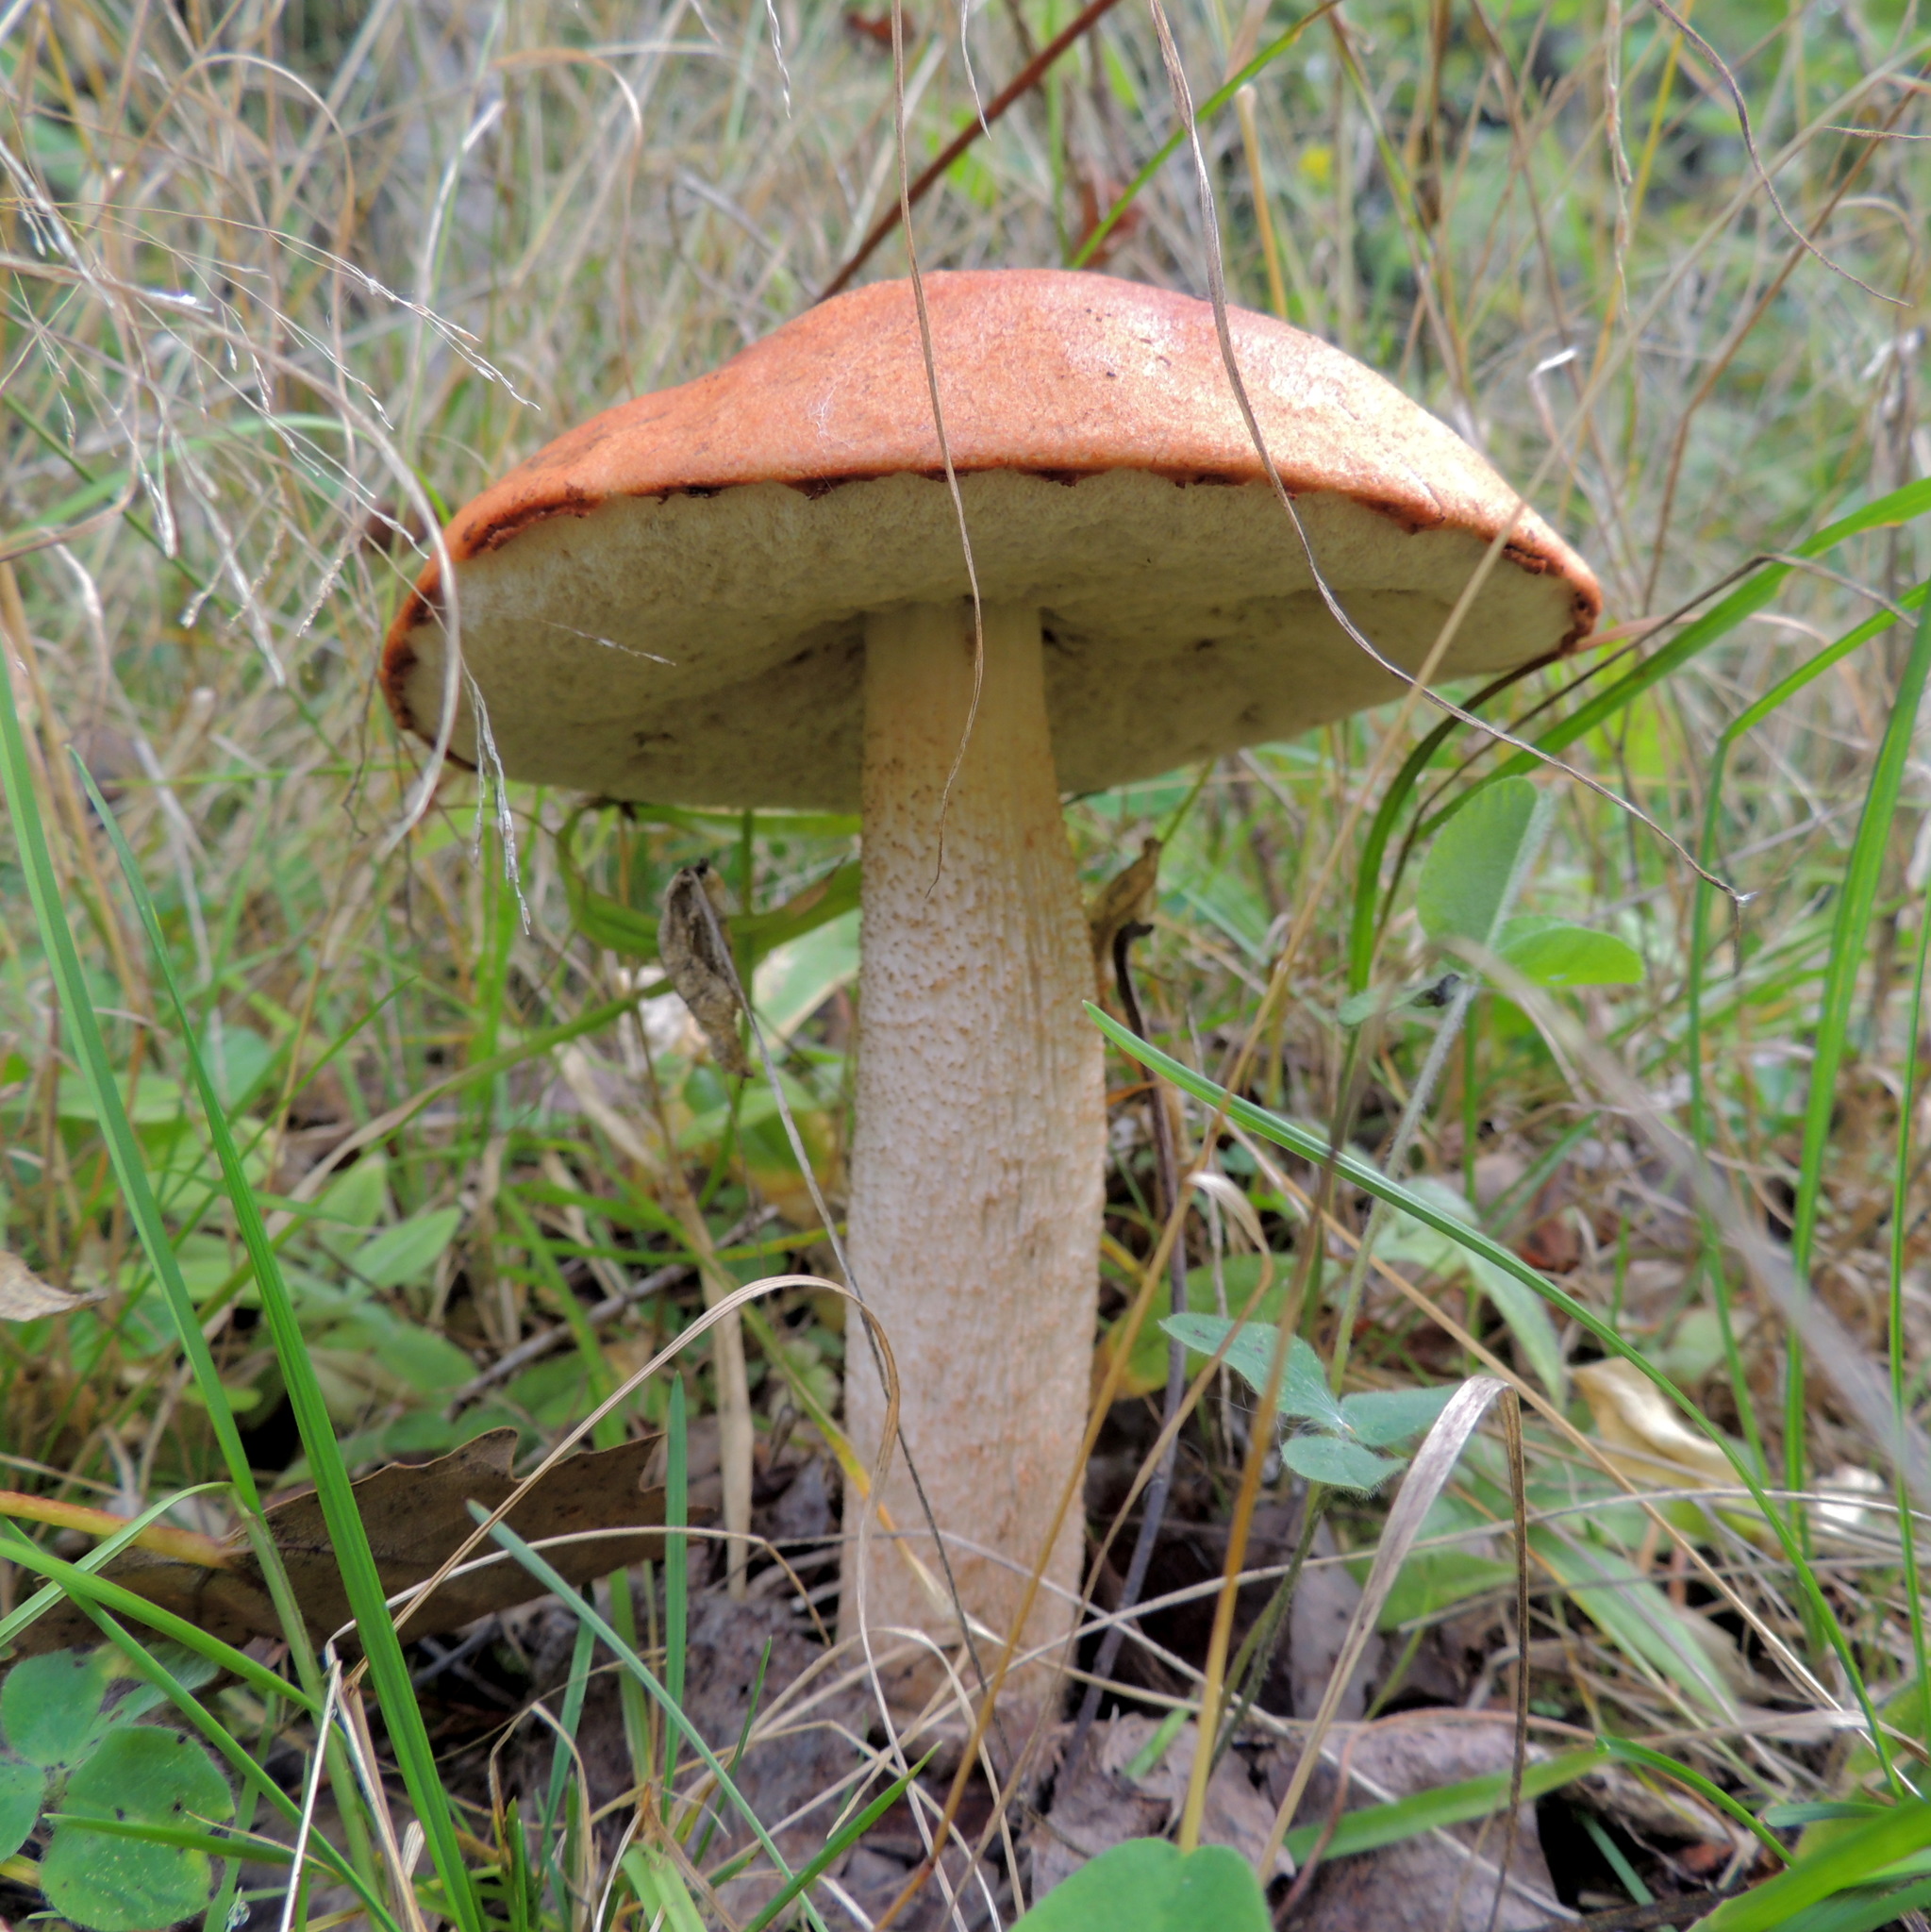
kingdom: Fungi
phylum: Basidiomycota
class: Agaricomycetes
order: Boletales
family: Boletaceae
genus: Leccinum
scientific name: Leccinum aurantiacum
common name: Orange bolete
